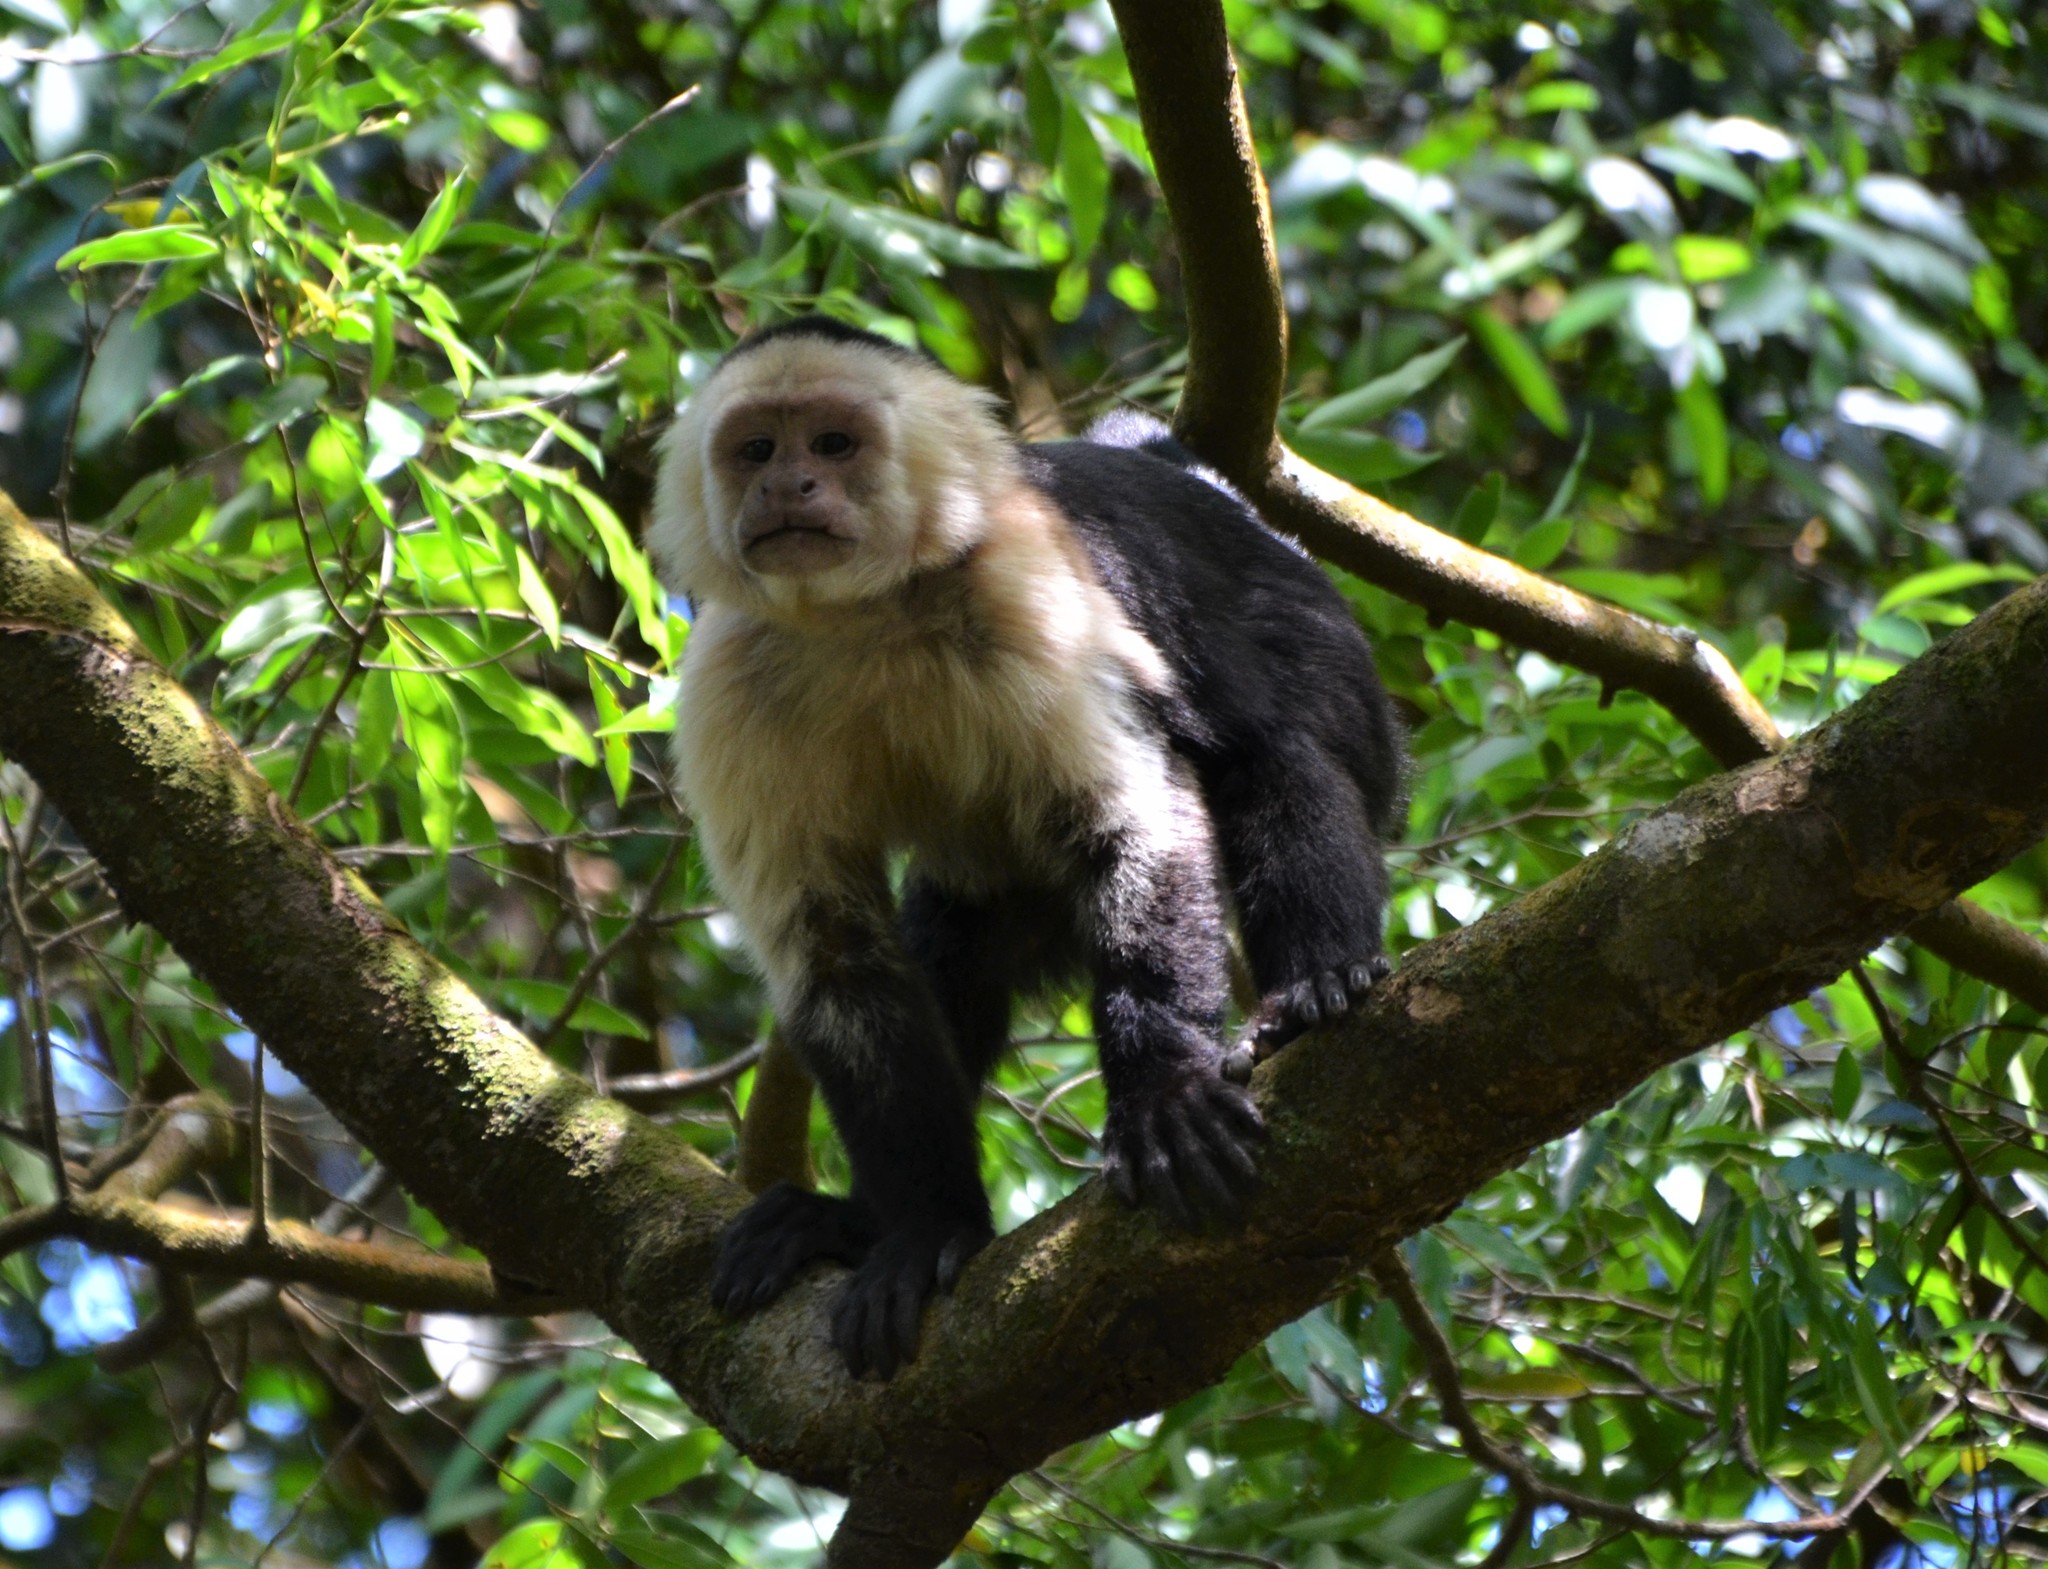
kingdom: Animalia
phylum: Chordata
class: Mammalia
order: Primates
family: Cebidae
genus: Cebus
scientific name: Cebus imitator
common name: Panamanian white-faced capuchin
